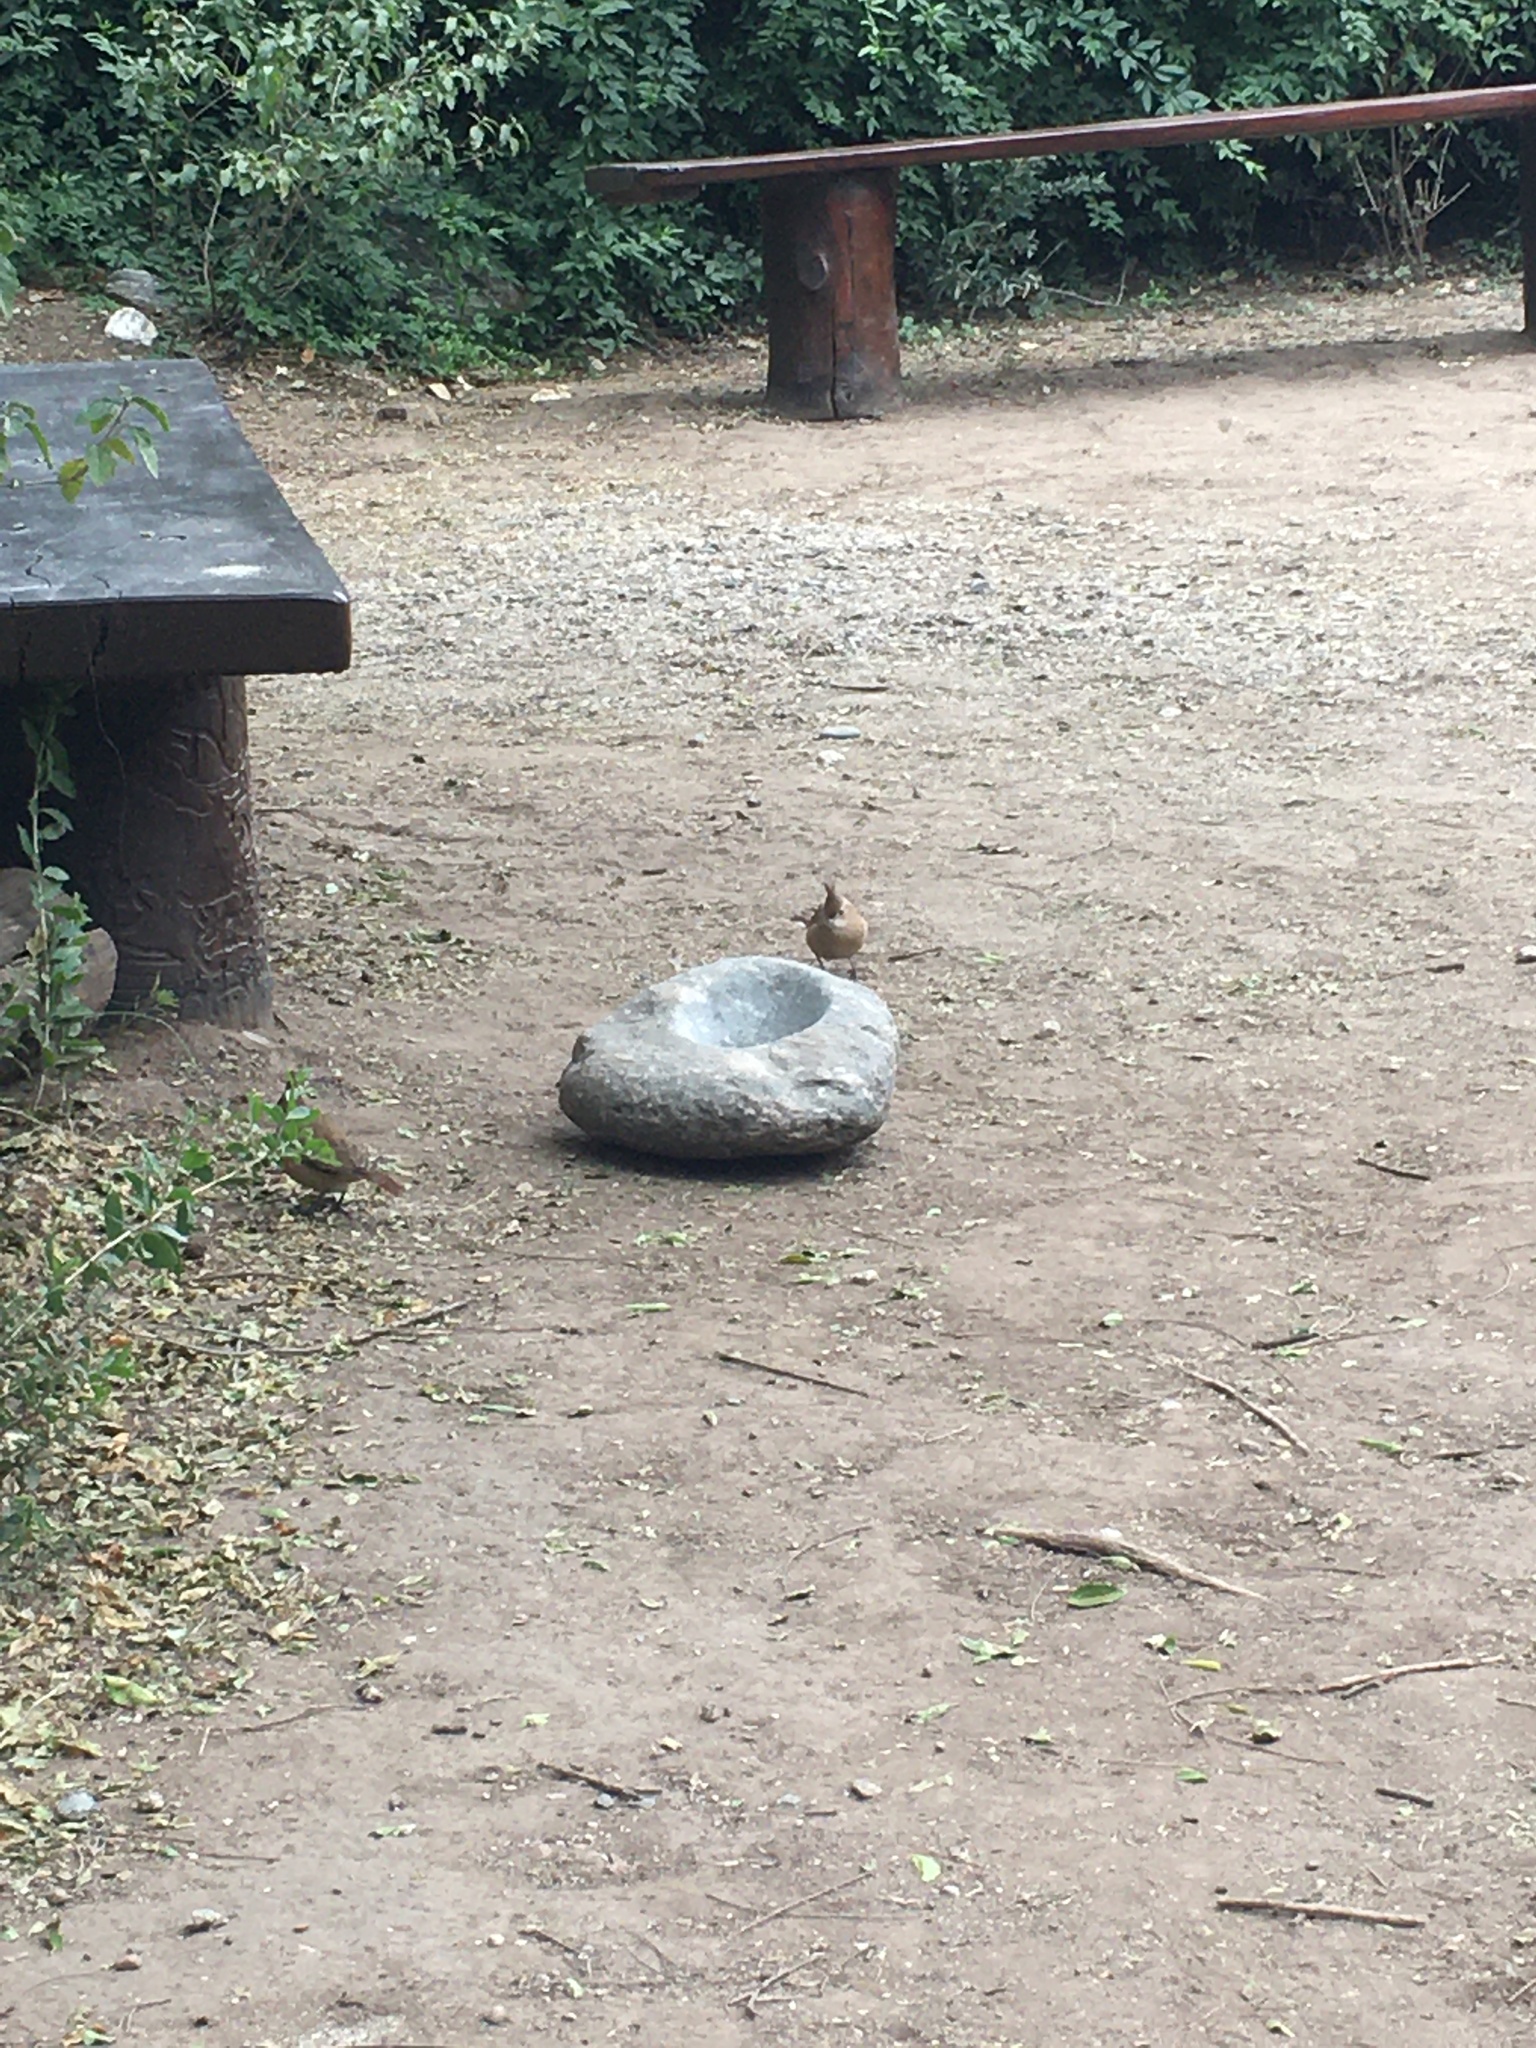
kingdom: Animalia
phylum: Chordata
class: Aves
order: Passeriformes
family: Furnariidae
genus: Furnarius
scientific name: Furnarius cristatus
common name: Crested hornero
